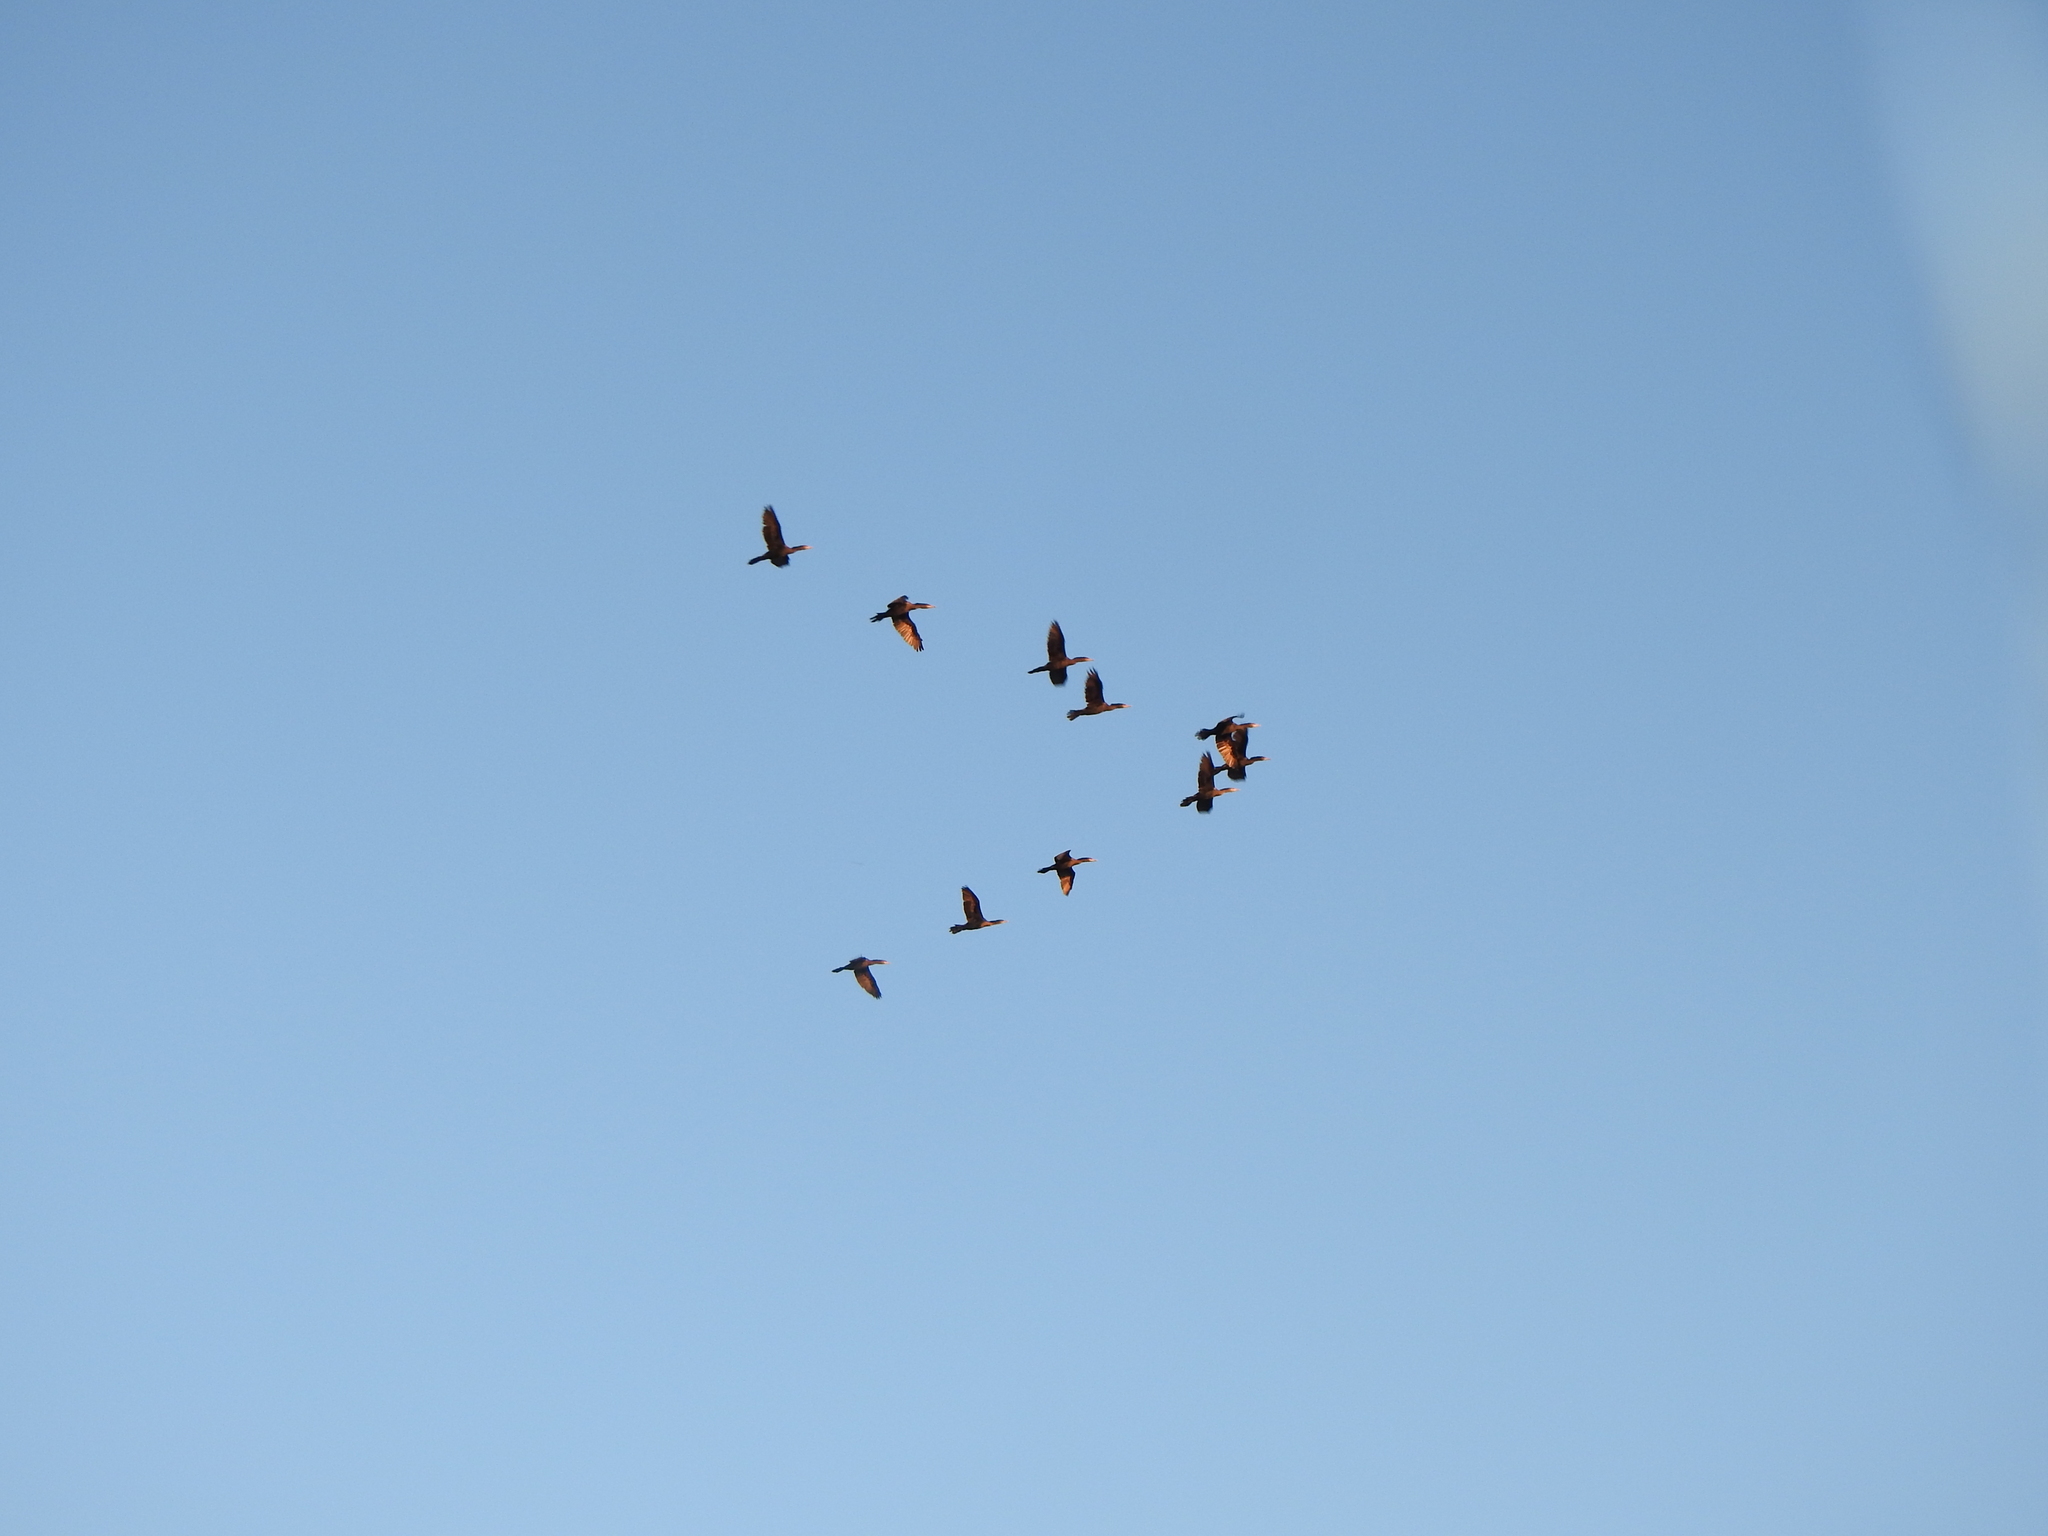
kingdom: Animalia
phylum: Chordata
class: Aves
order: Suliformes
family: Phalacrocoracidae
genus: Phalacrocorax
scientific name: Phalacrocorax brasilianus
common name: Neotropic cormorant
